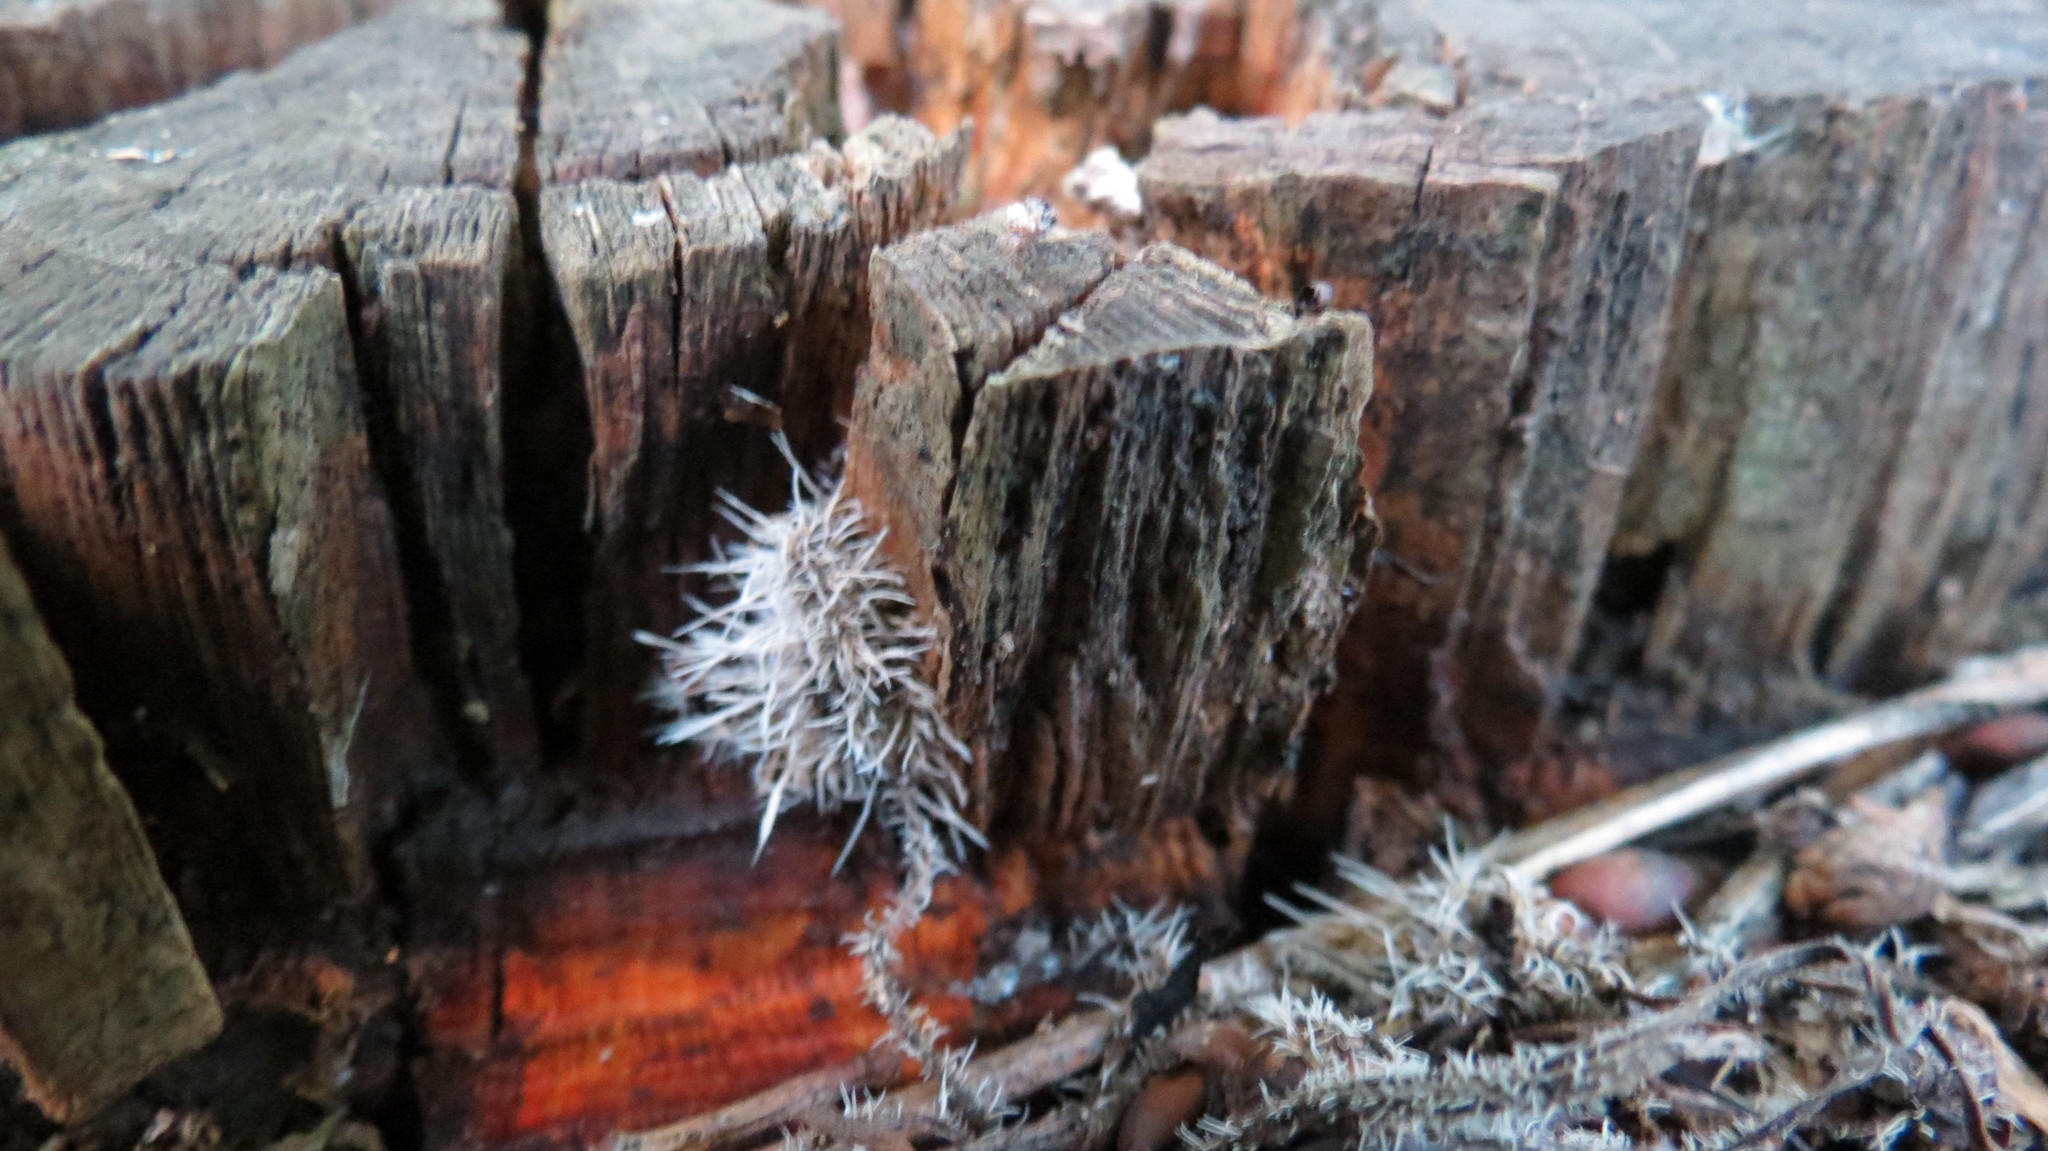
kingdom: Fungi
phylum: Ascomycota
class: Sordariomycetes
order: Hypocreales
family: Tilachlidiaceae
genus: Tilachlidium
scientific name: Tilachlidium brachiatum
